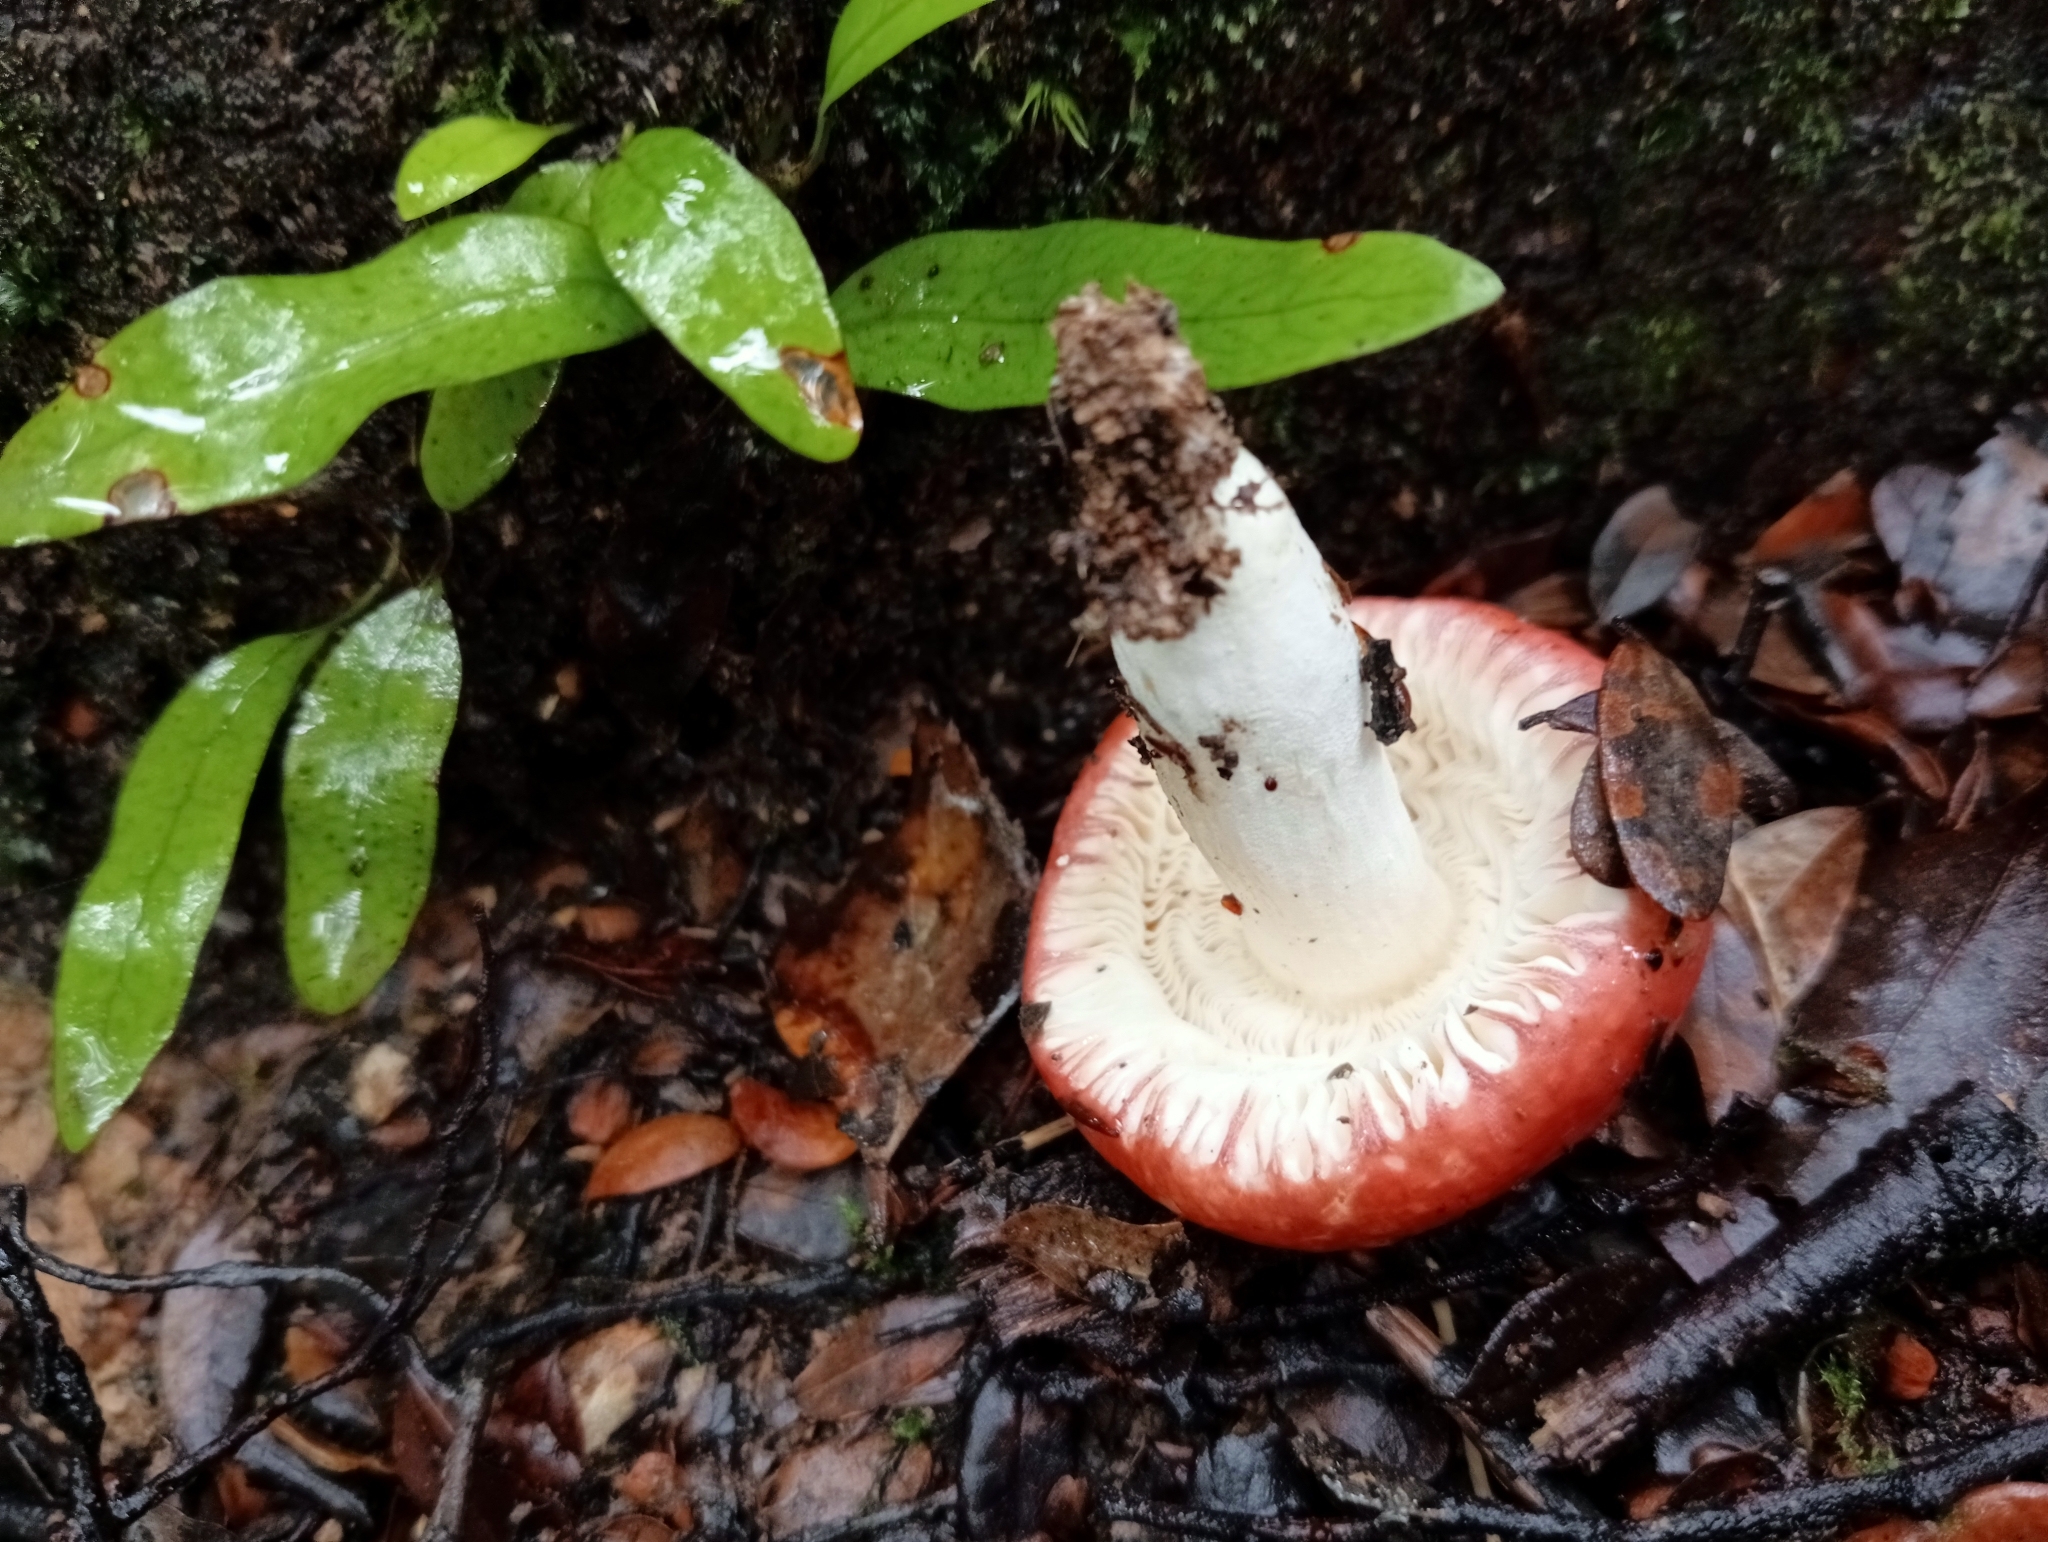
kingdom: Fungi
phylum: Basidiomycota
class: Agaricomycetes
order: Russulales
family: Russulaceae
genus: Russula
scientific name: Russula kermesina
